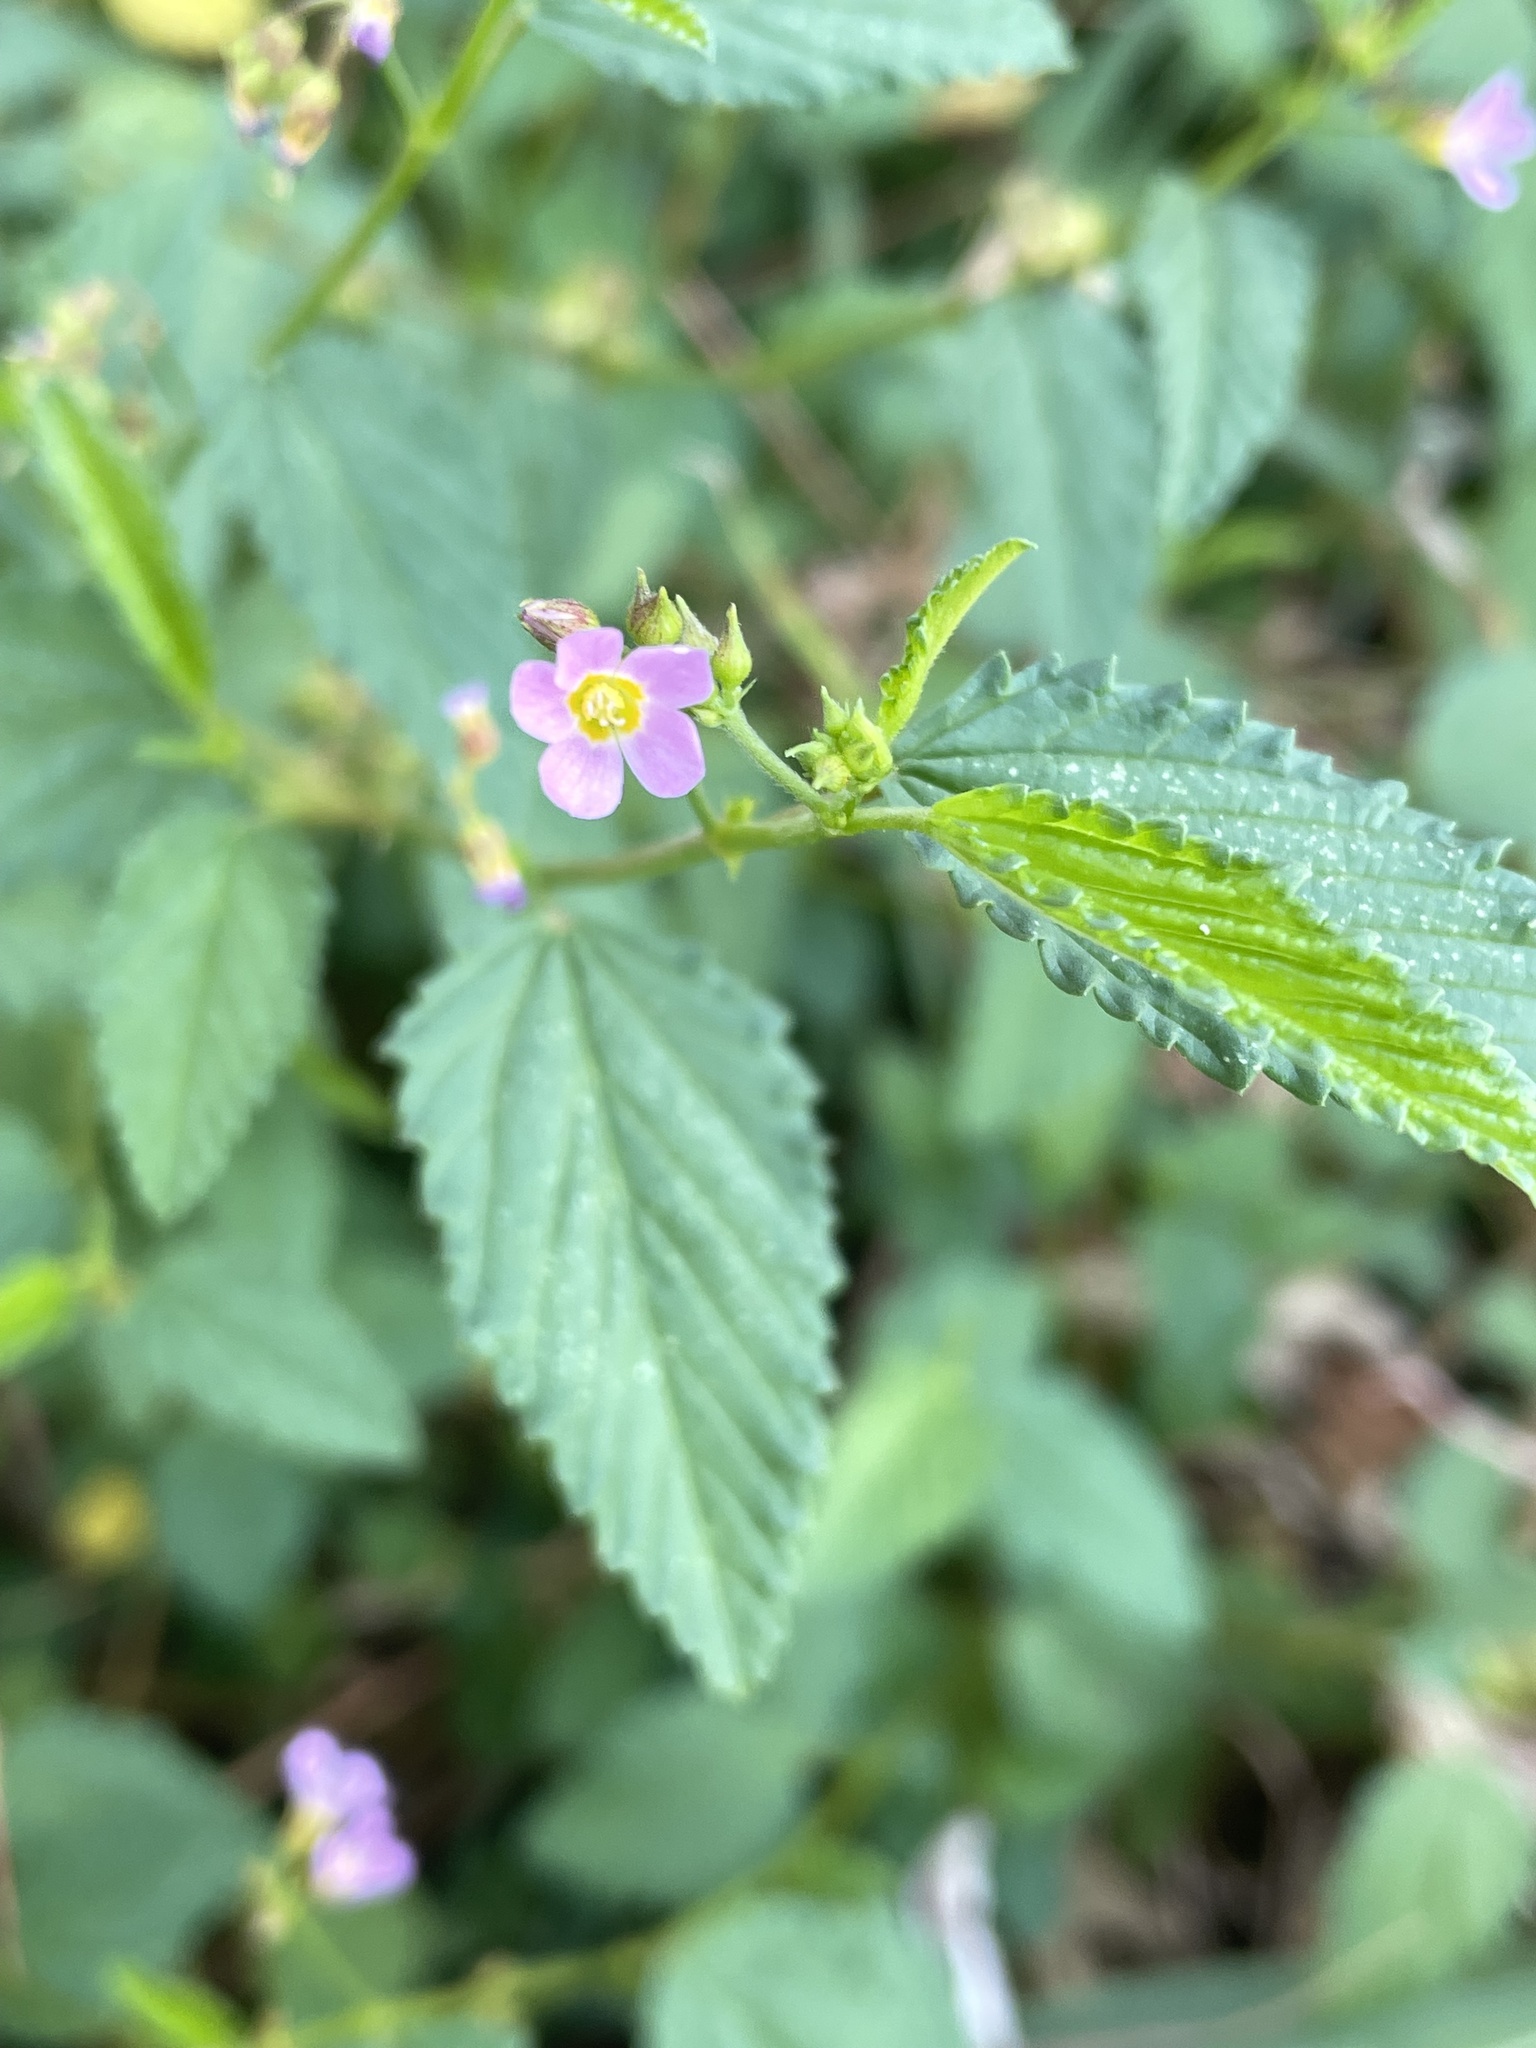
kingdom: Plantae
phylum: Tracheophyta
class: Magnoliopsida
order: Malvales
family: Malvaceae
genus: Melochia
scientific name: Melochia pyramidata
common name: Pyramidflower
